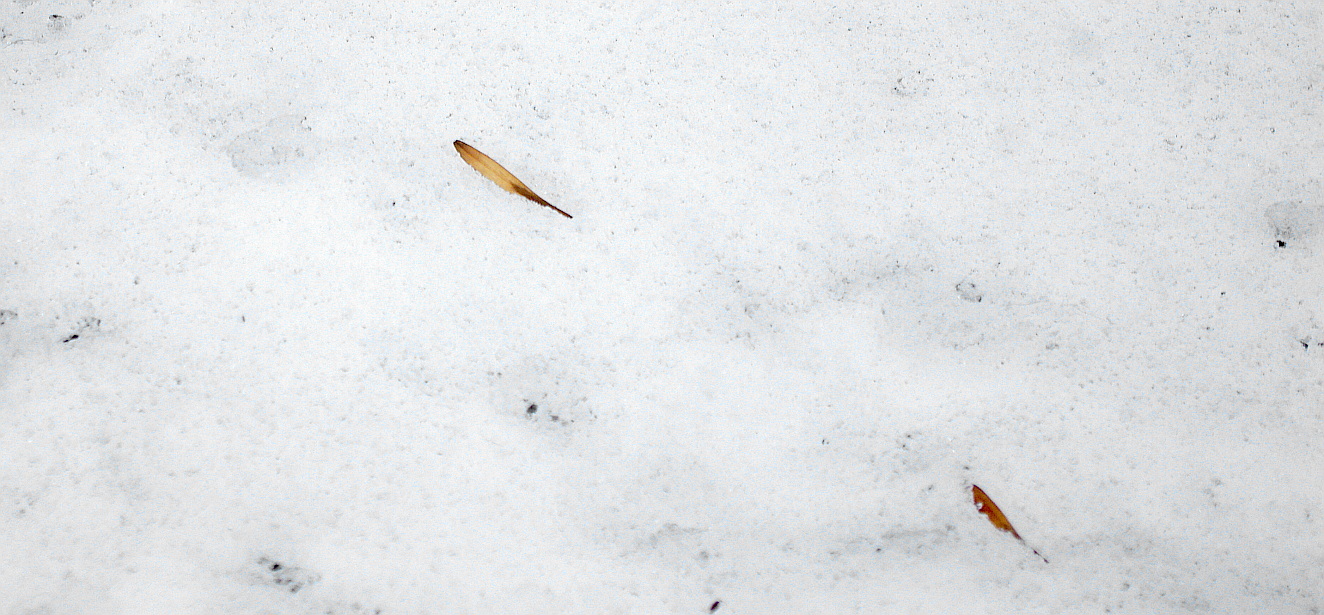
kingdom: Plantae
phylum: Tracheophyta
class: Magnoliopsida
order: Lamiales
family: Oleaceae
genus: Fraxinus
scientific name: Fraxinus pennsylvanica
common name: Green ash
